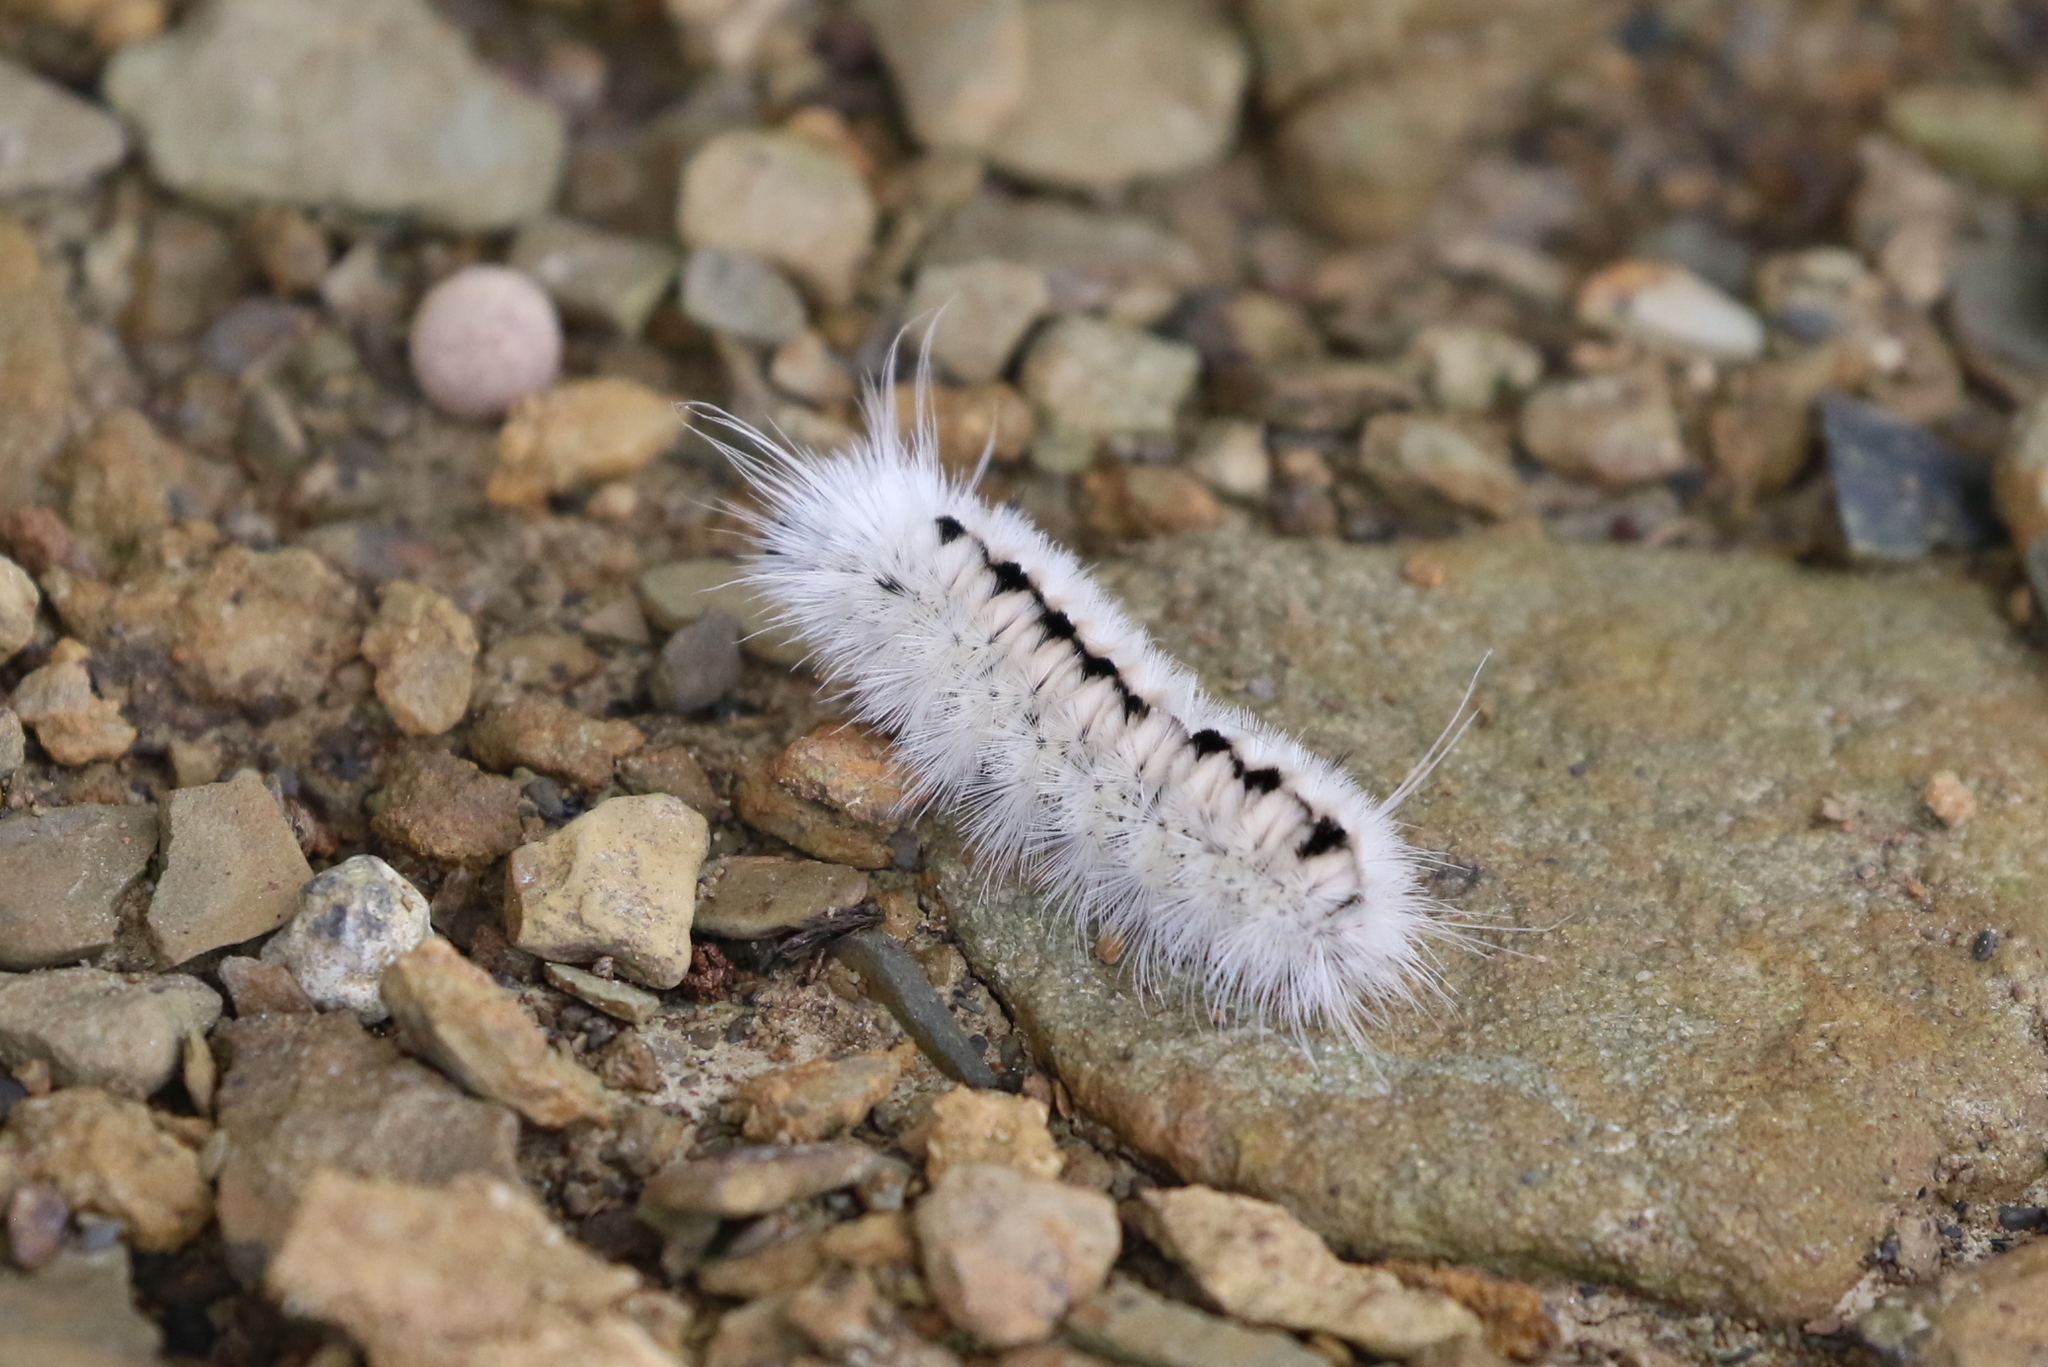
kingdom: Animalia
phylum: Arthropoda
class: Insecta
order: Lepidoptera
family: Erebidae
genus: Lophocampa
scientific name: Lophocampa caryae
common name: Hickory tussock moth
